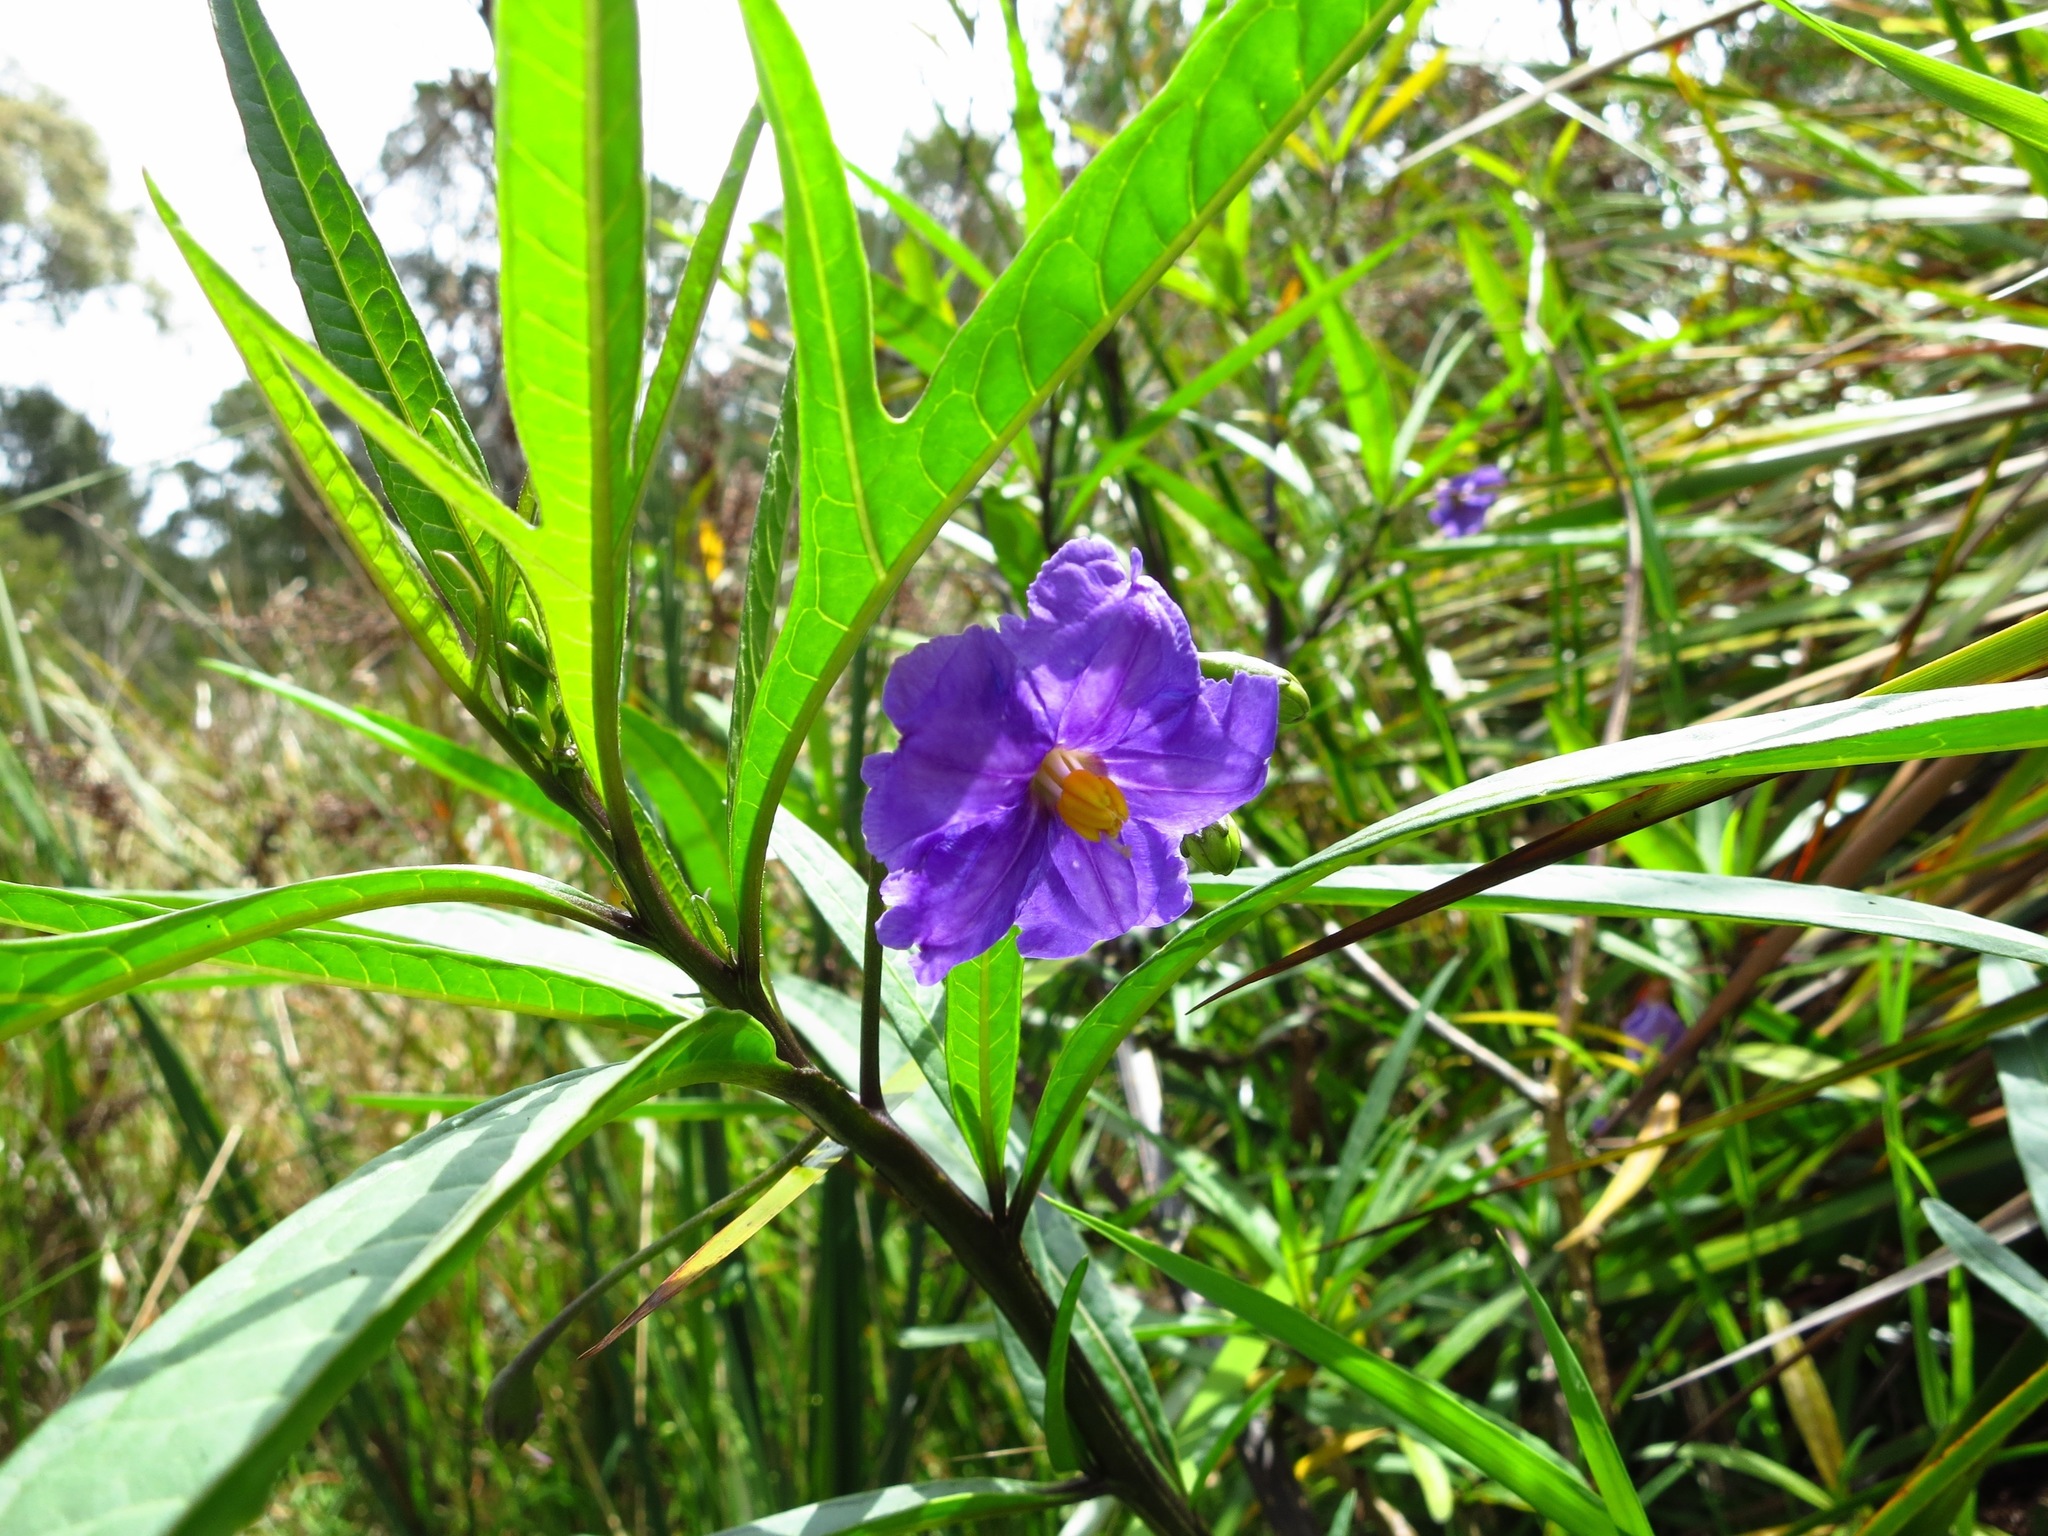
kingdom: Plantae
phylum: Tracheophyta
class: Magnoliopsida
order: Solanales
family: Solanaceae
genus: Solanum
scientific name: Solanum laciniatum
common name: Kangaroo-apple
